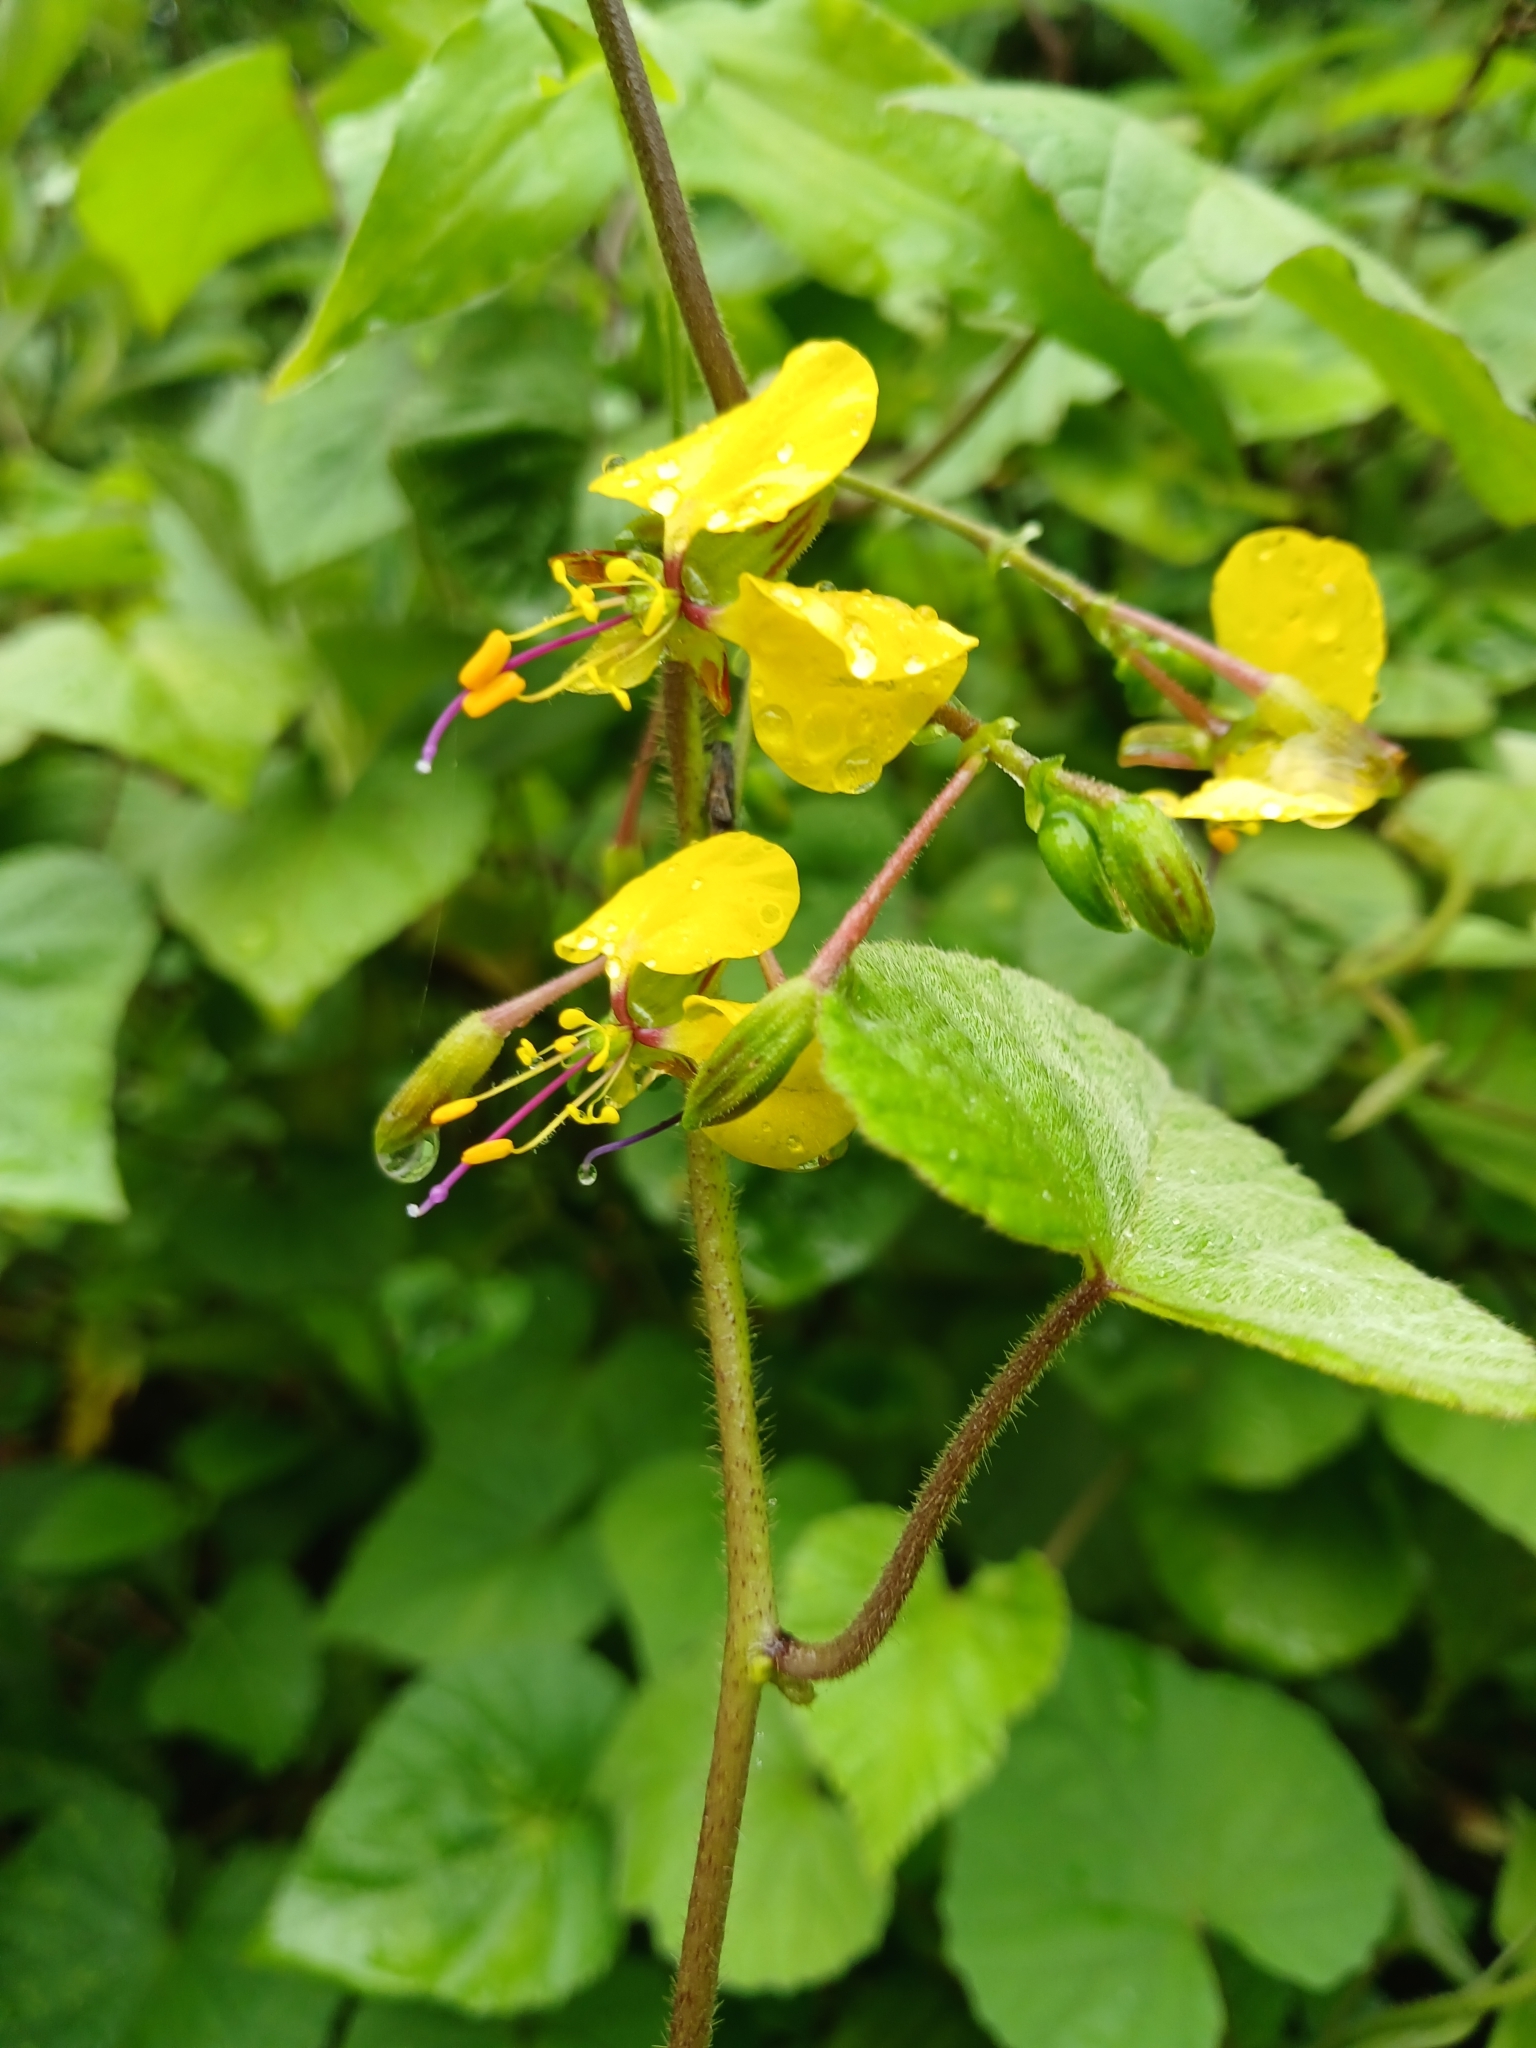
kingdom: Plantae
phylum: Tracheophyta
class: Liliopsida
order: Commelinales
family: Commelinaceae
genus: Aneilema
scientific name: Aneilema aequinoctiale
